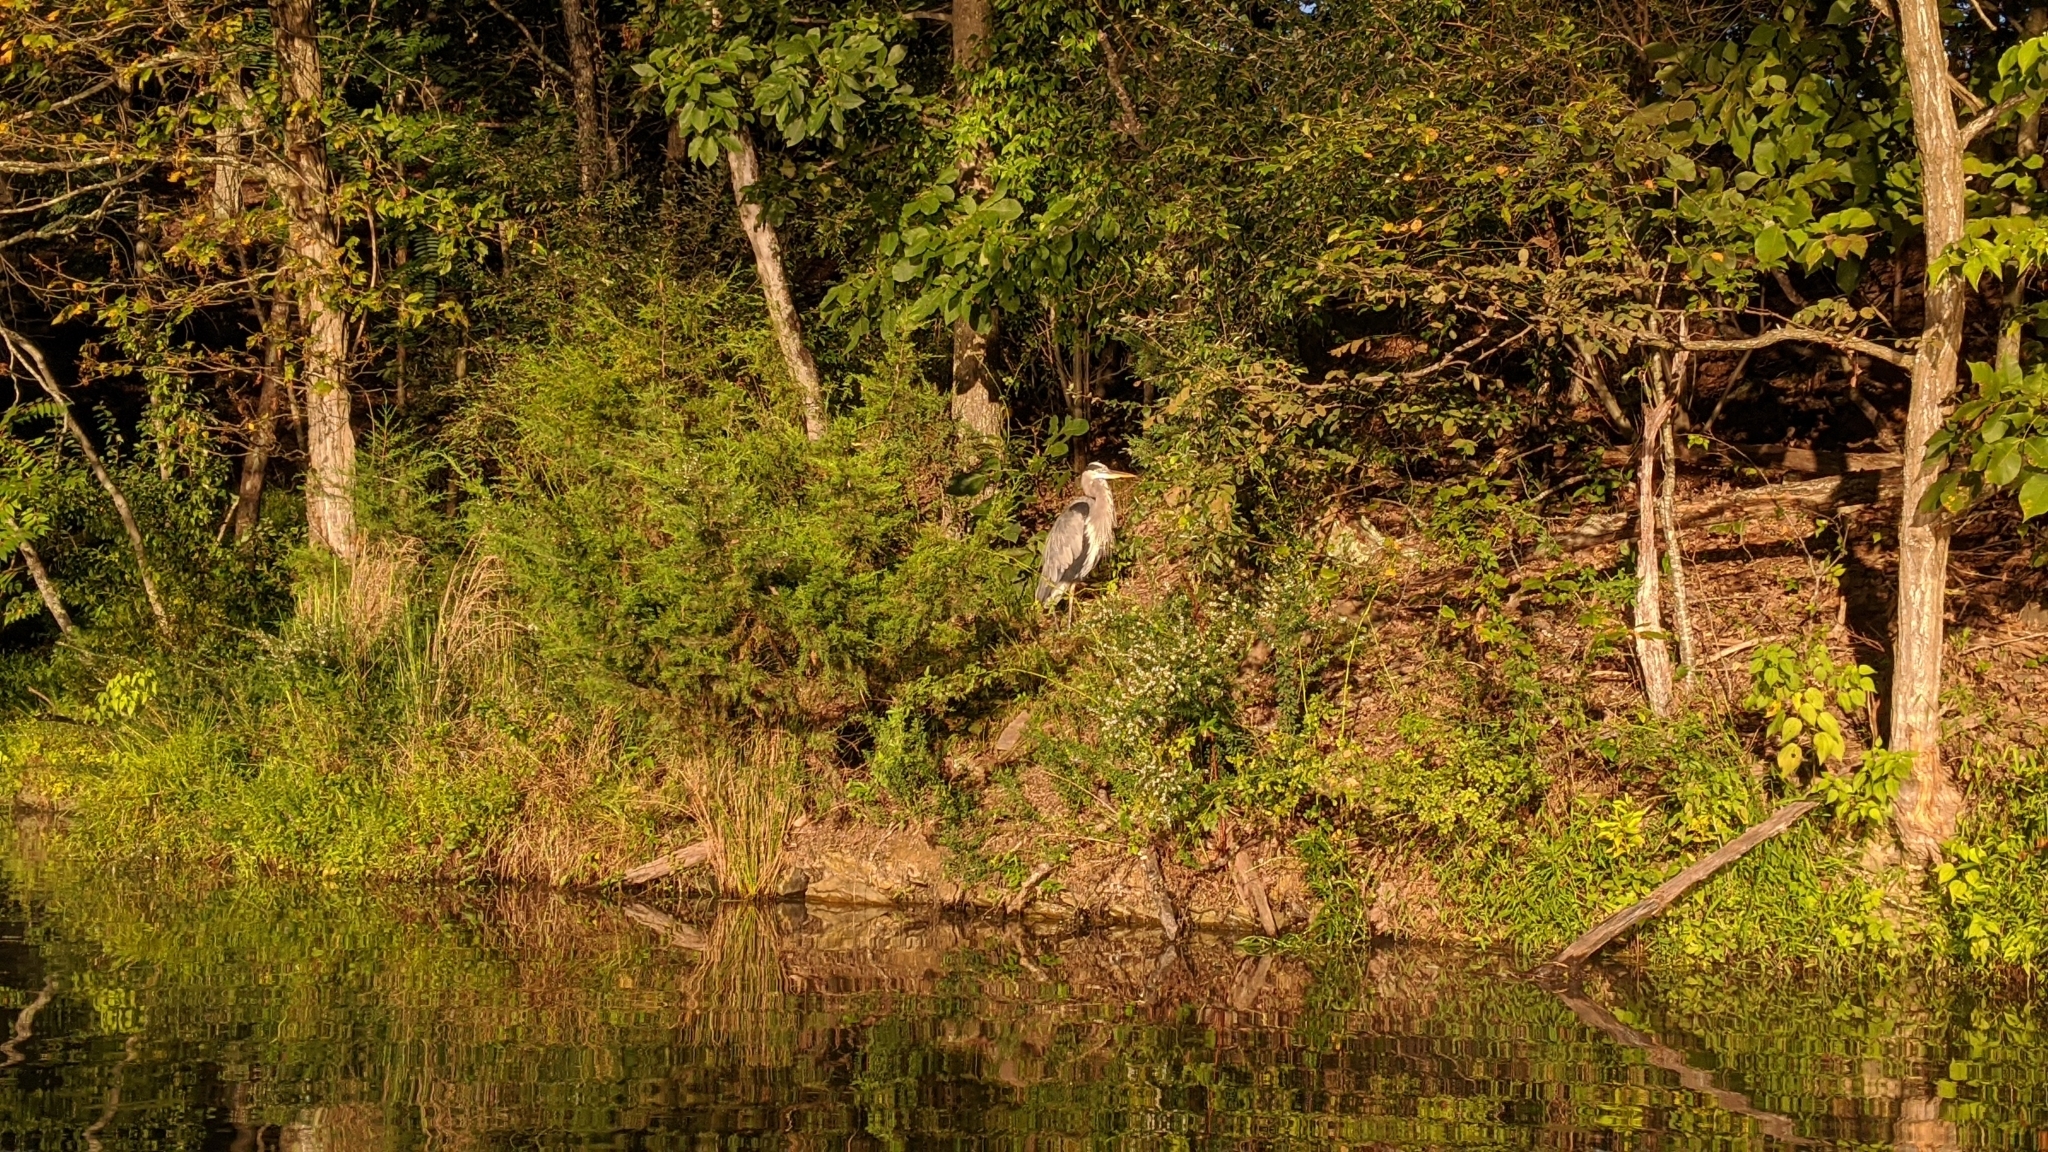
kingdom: Animalia
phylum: Chordata
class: Aves
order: Pelecaniformes
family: Ardeidae
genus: Ardea
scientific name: Ardea herodias
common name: Great blue heron
